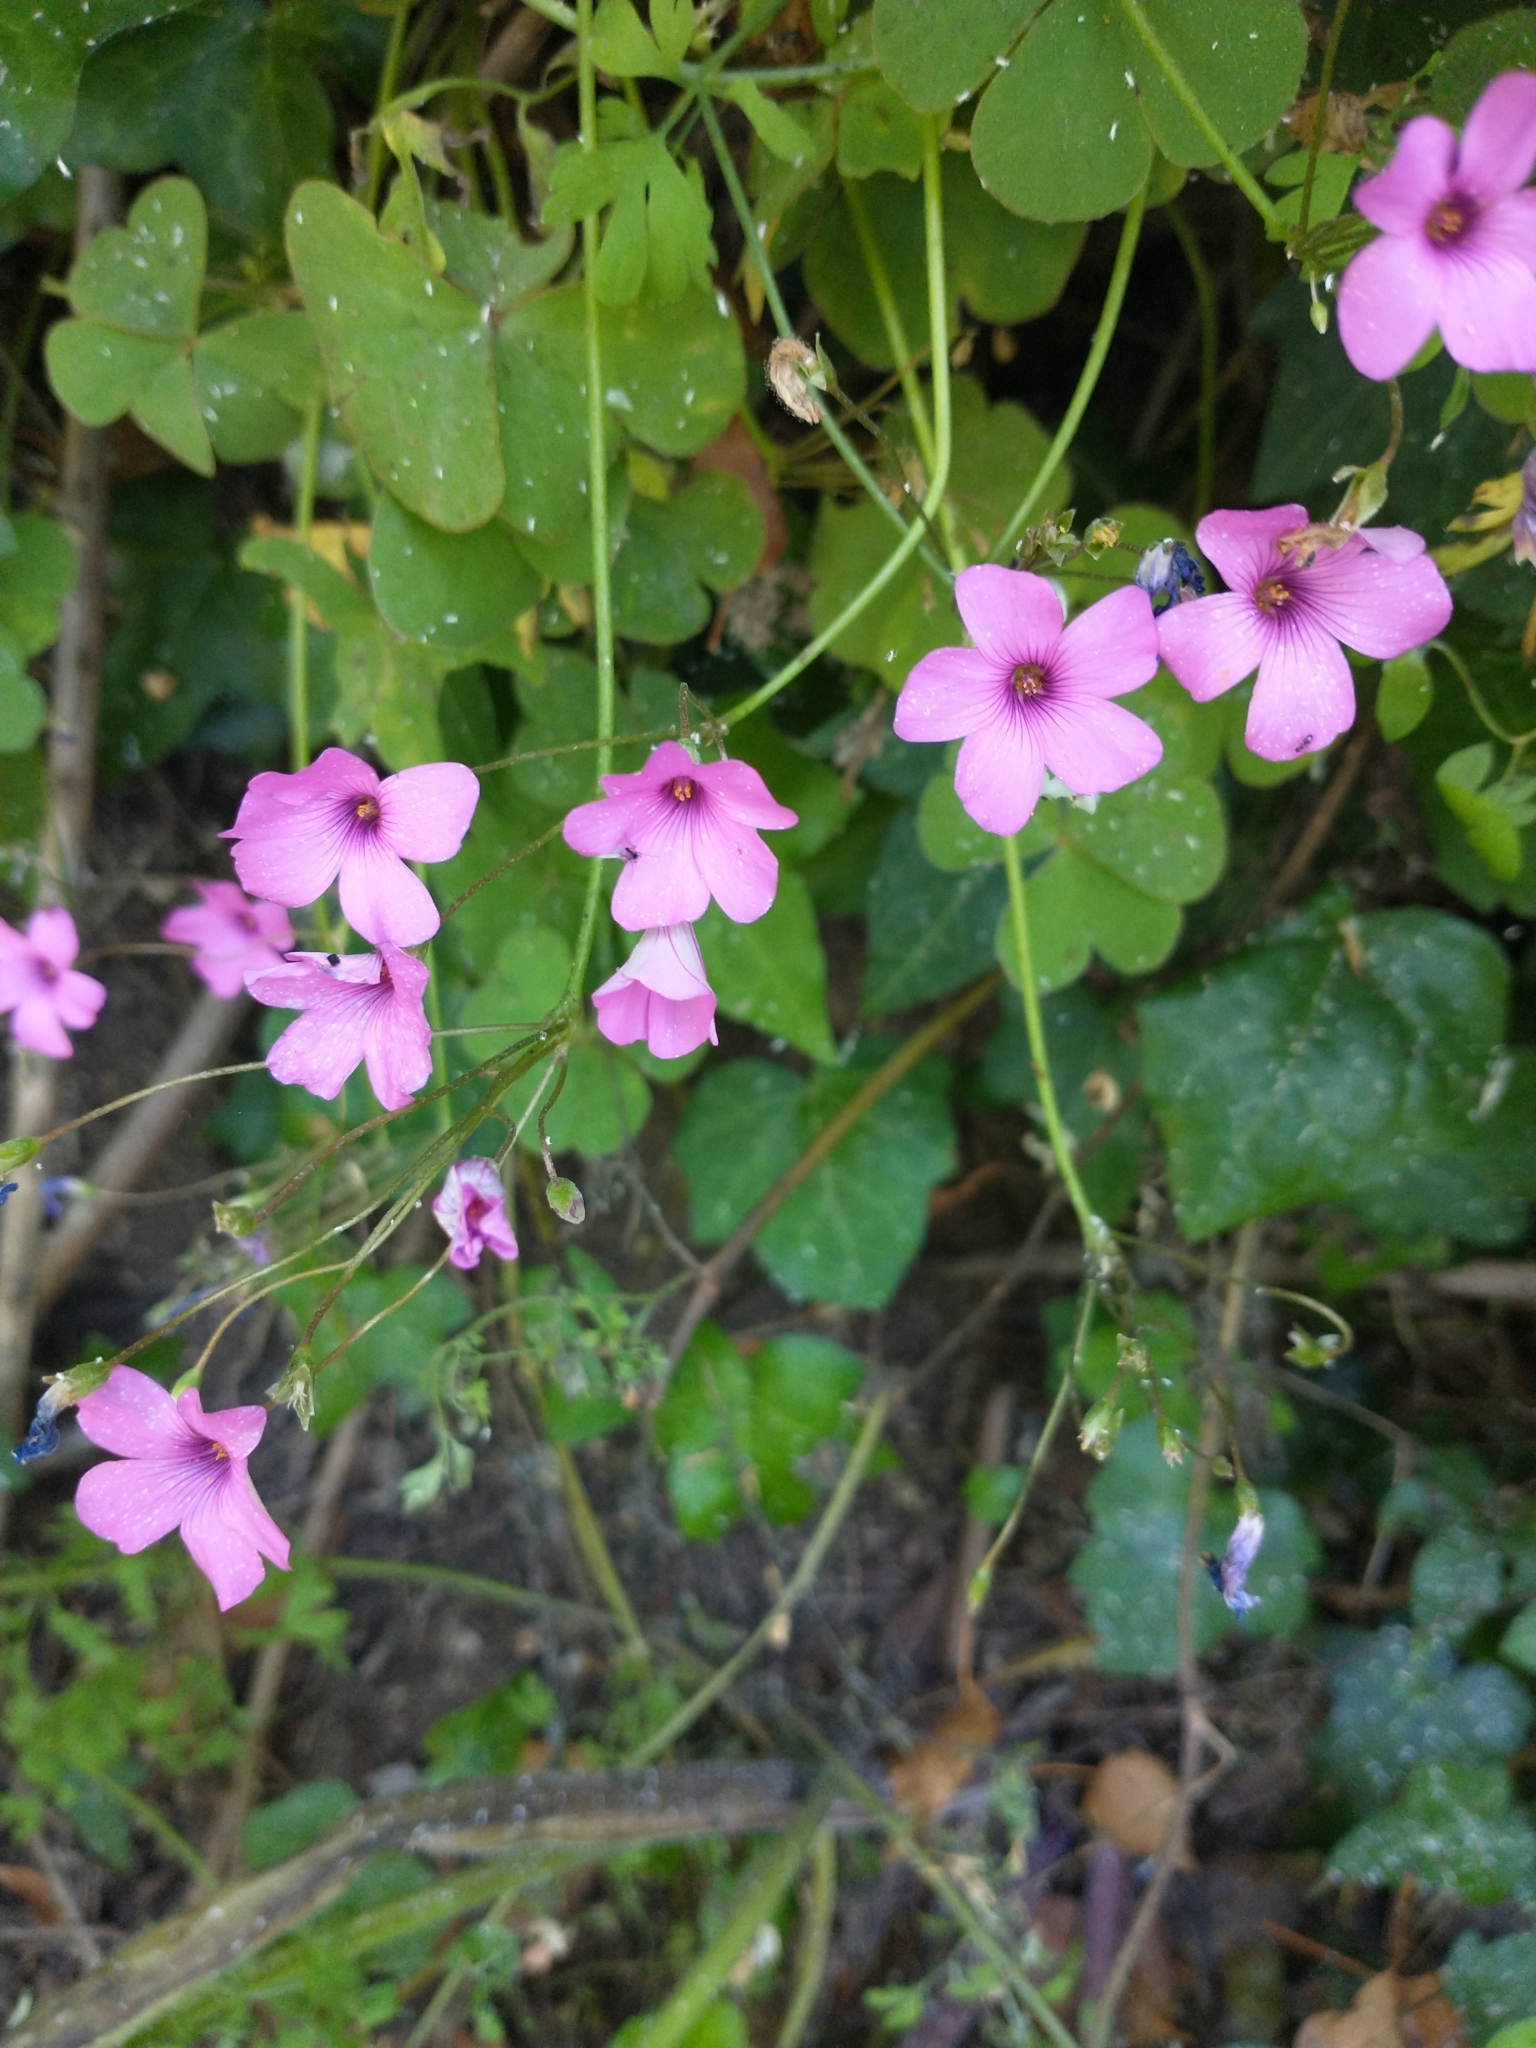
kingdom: Plantae
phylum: Tracheophyta
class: Magnoliopsida
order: Oxalidales
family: Oxalidaceae
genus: Oxalis
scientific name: Oxalis articulata
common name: Pink-sorrel
